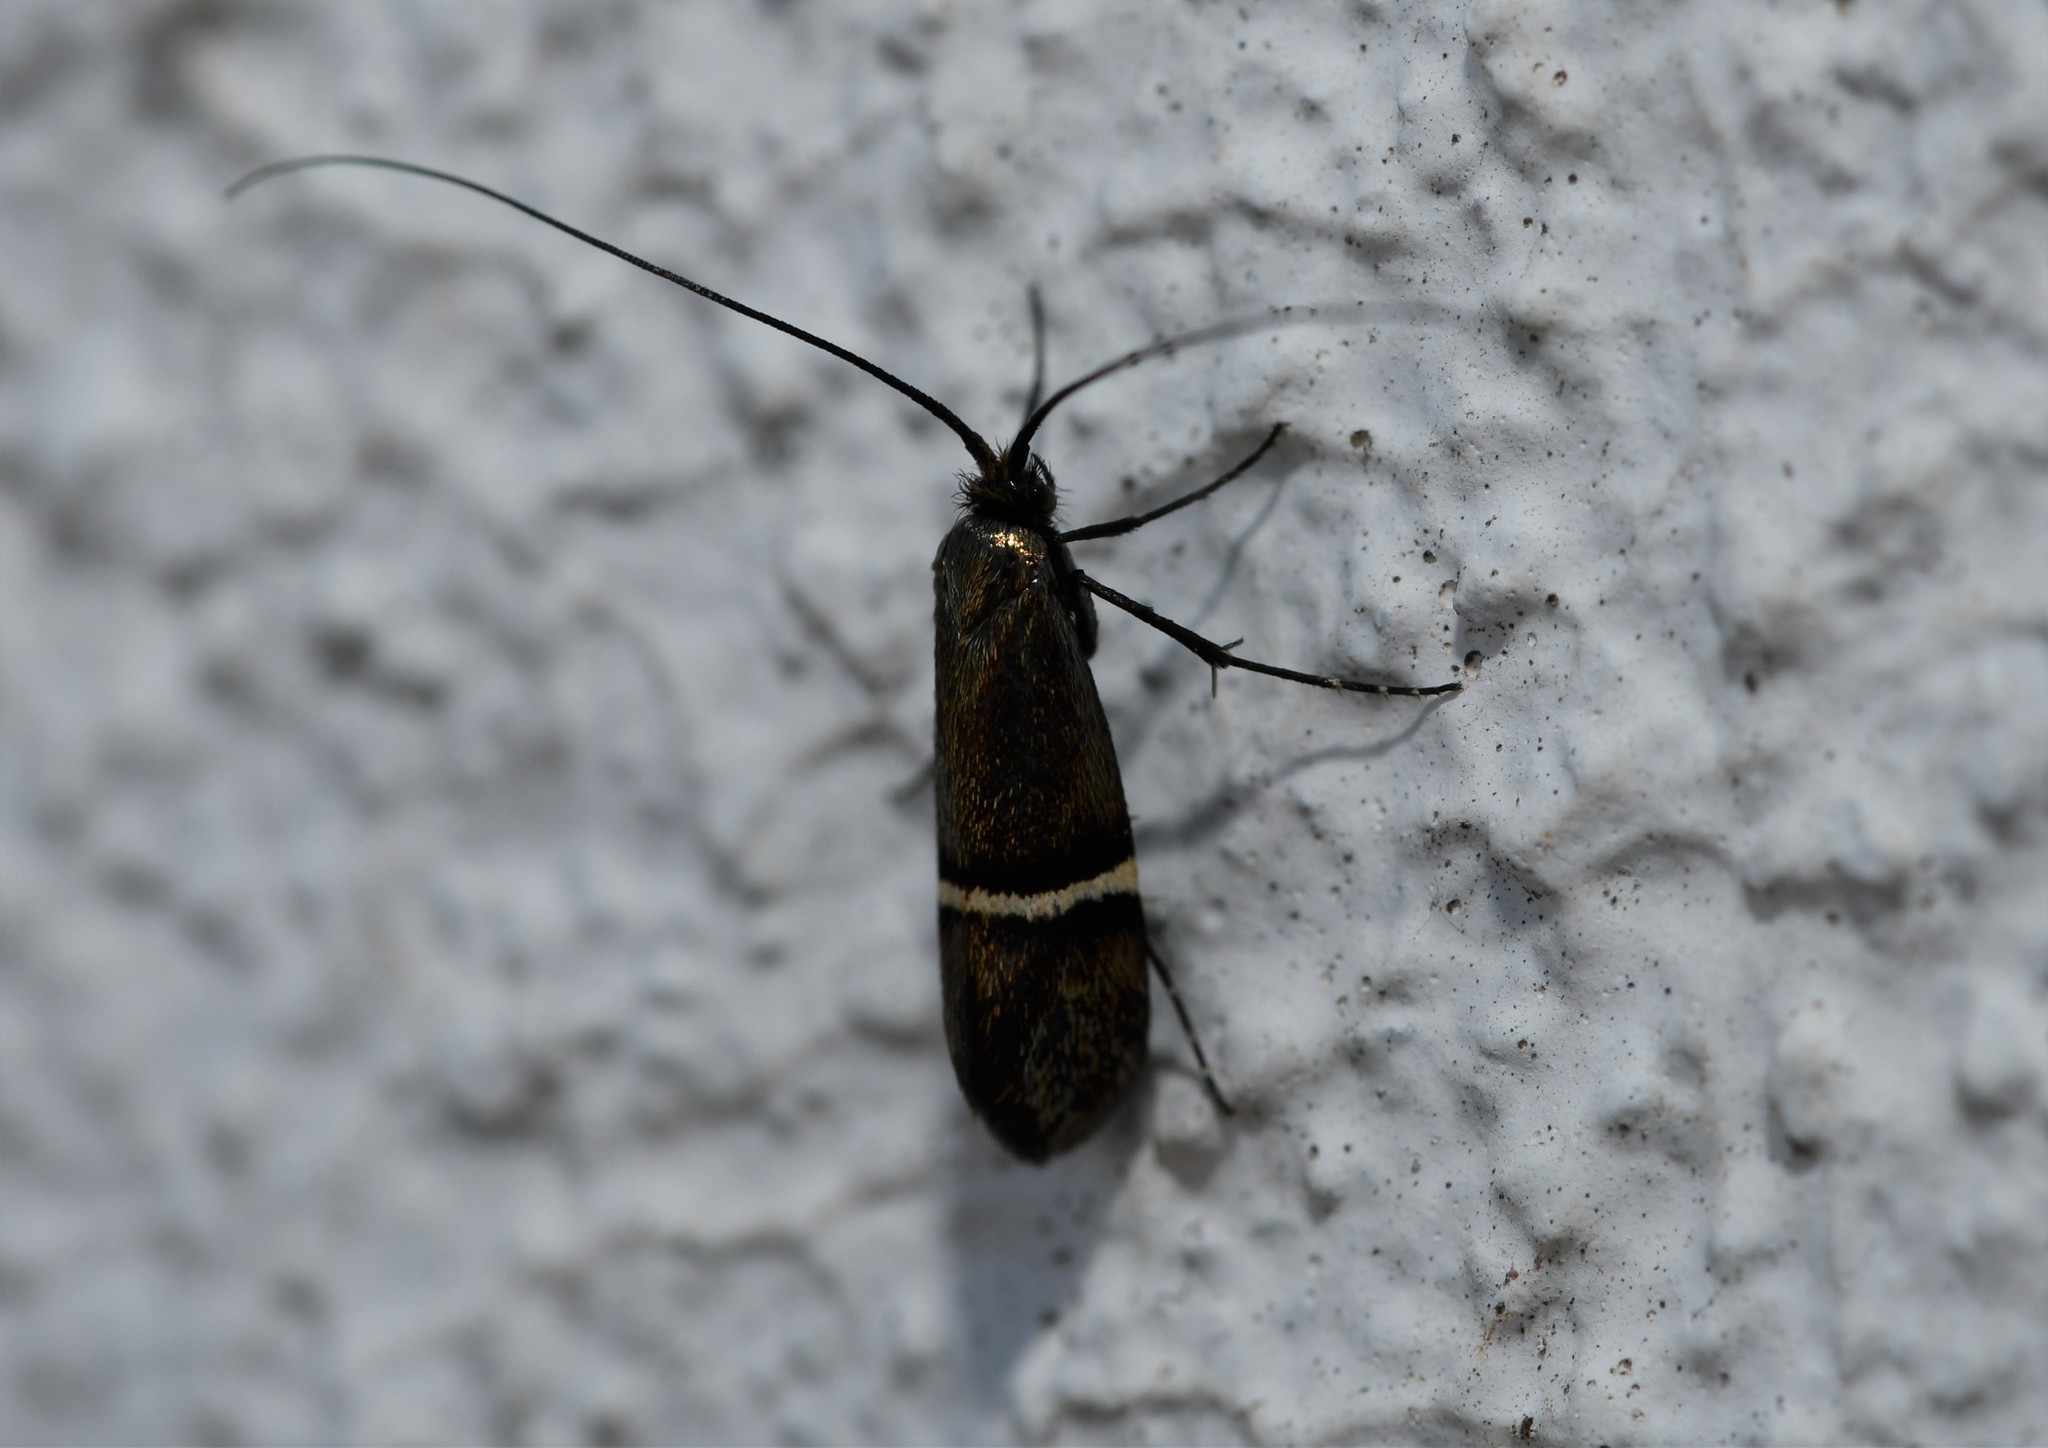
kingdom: Animalia
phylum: Arthropoda
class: Insecta
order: Lepidoptera
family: Adelidae
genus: Adela
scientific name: Adela collicolella
